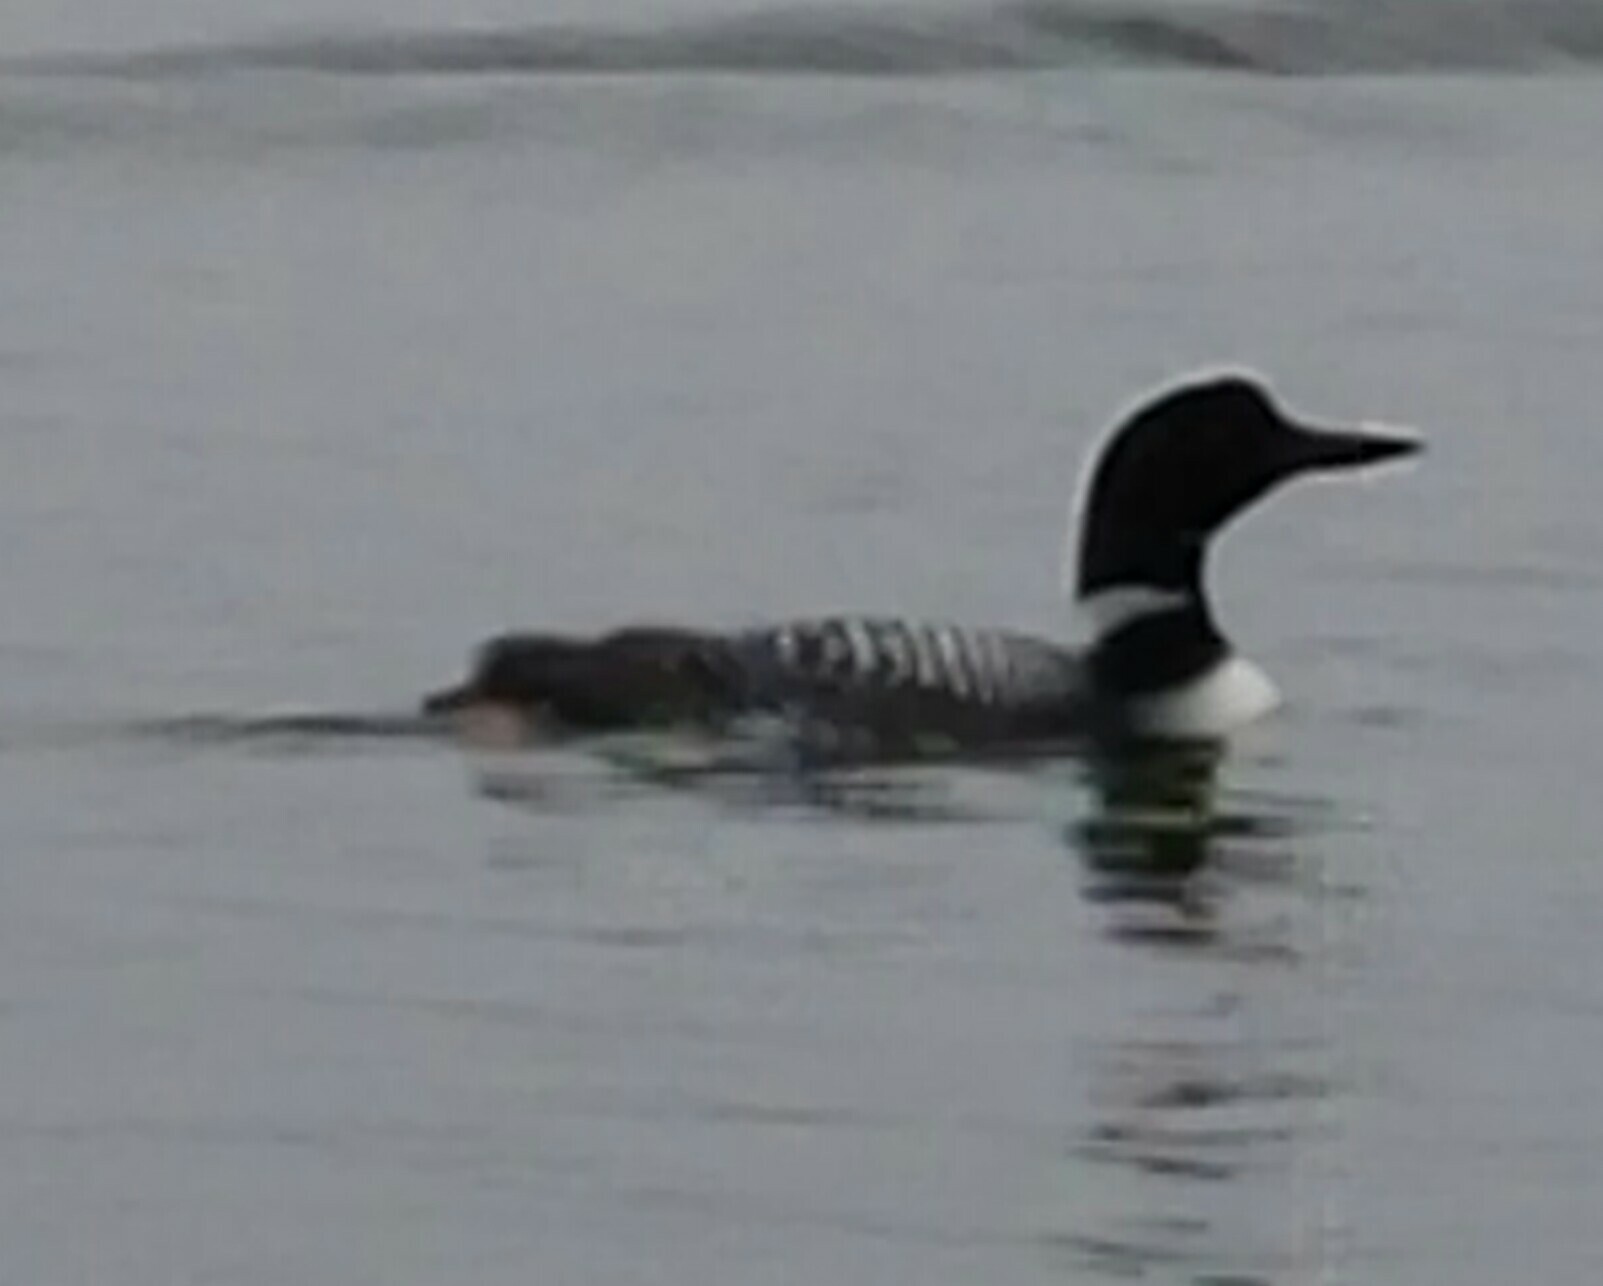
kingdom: Animalia
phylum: Chordata
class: Aves
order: Gaviiformes
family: Gaviidae
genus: Gavia
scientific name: Gavia immer
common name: Common loon
